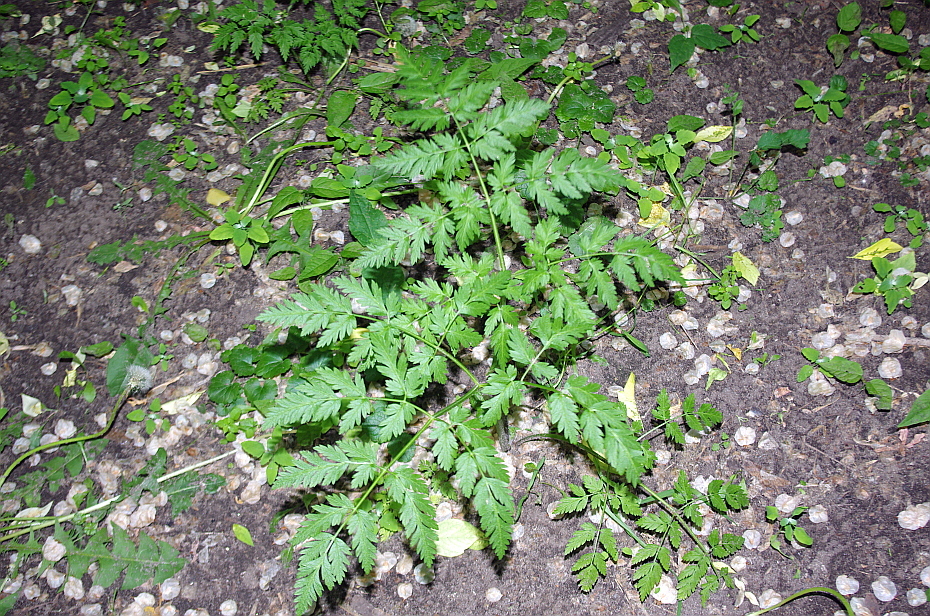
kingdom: Plantae
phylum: Tracheophyta
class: Magnoliopsida
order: Apiales
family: Apiaceae
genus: Anthriscus
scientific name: Anthriscus sylvestris
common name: Cow parsley
